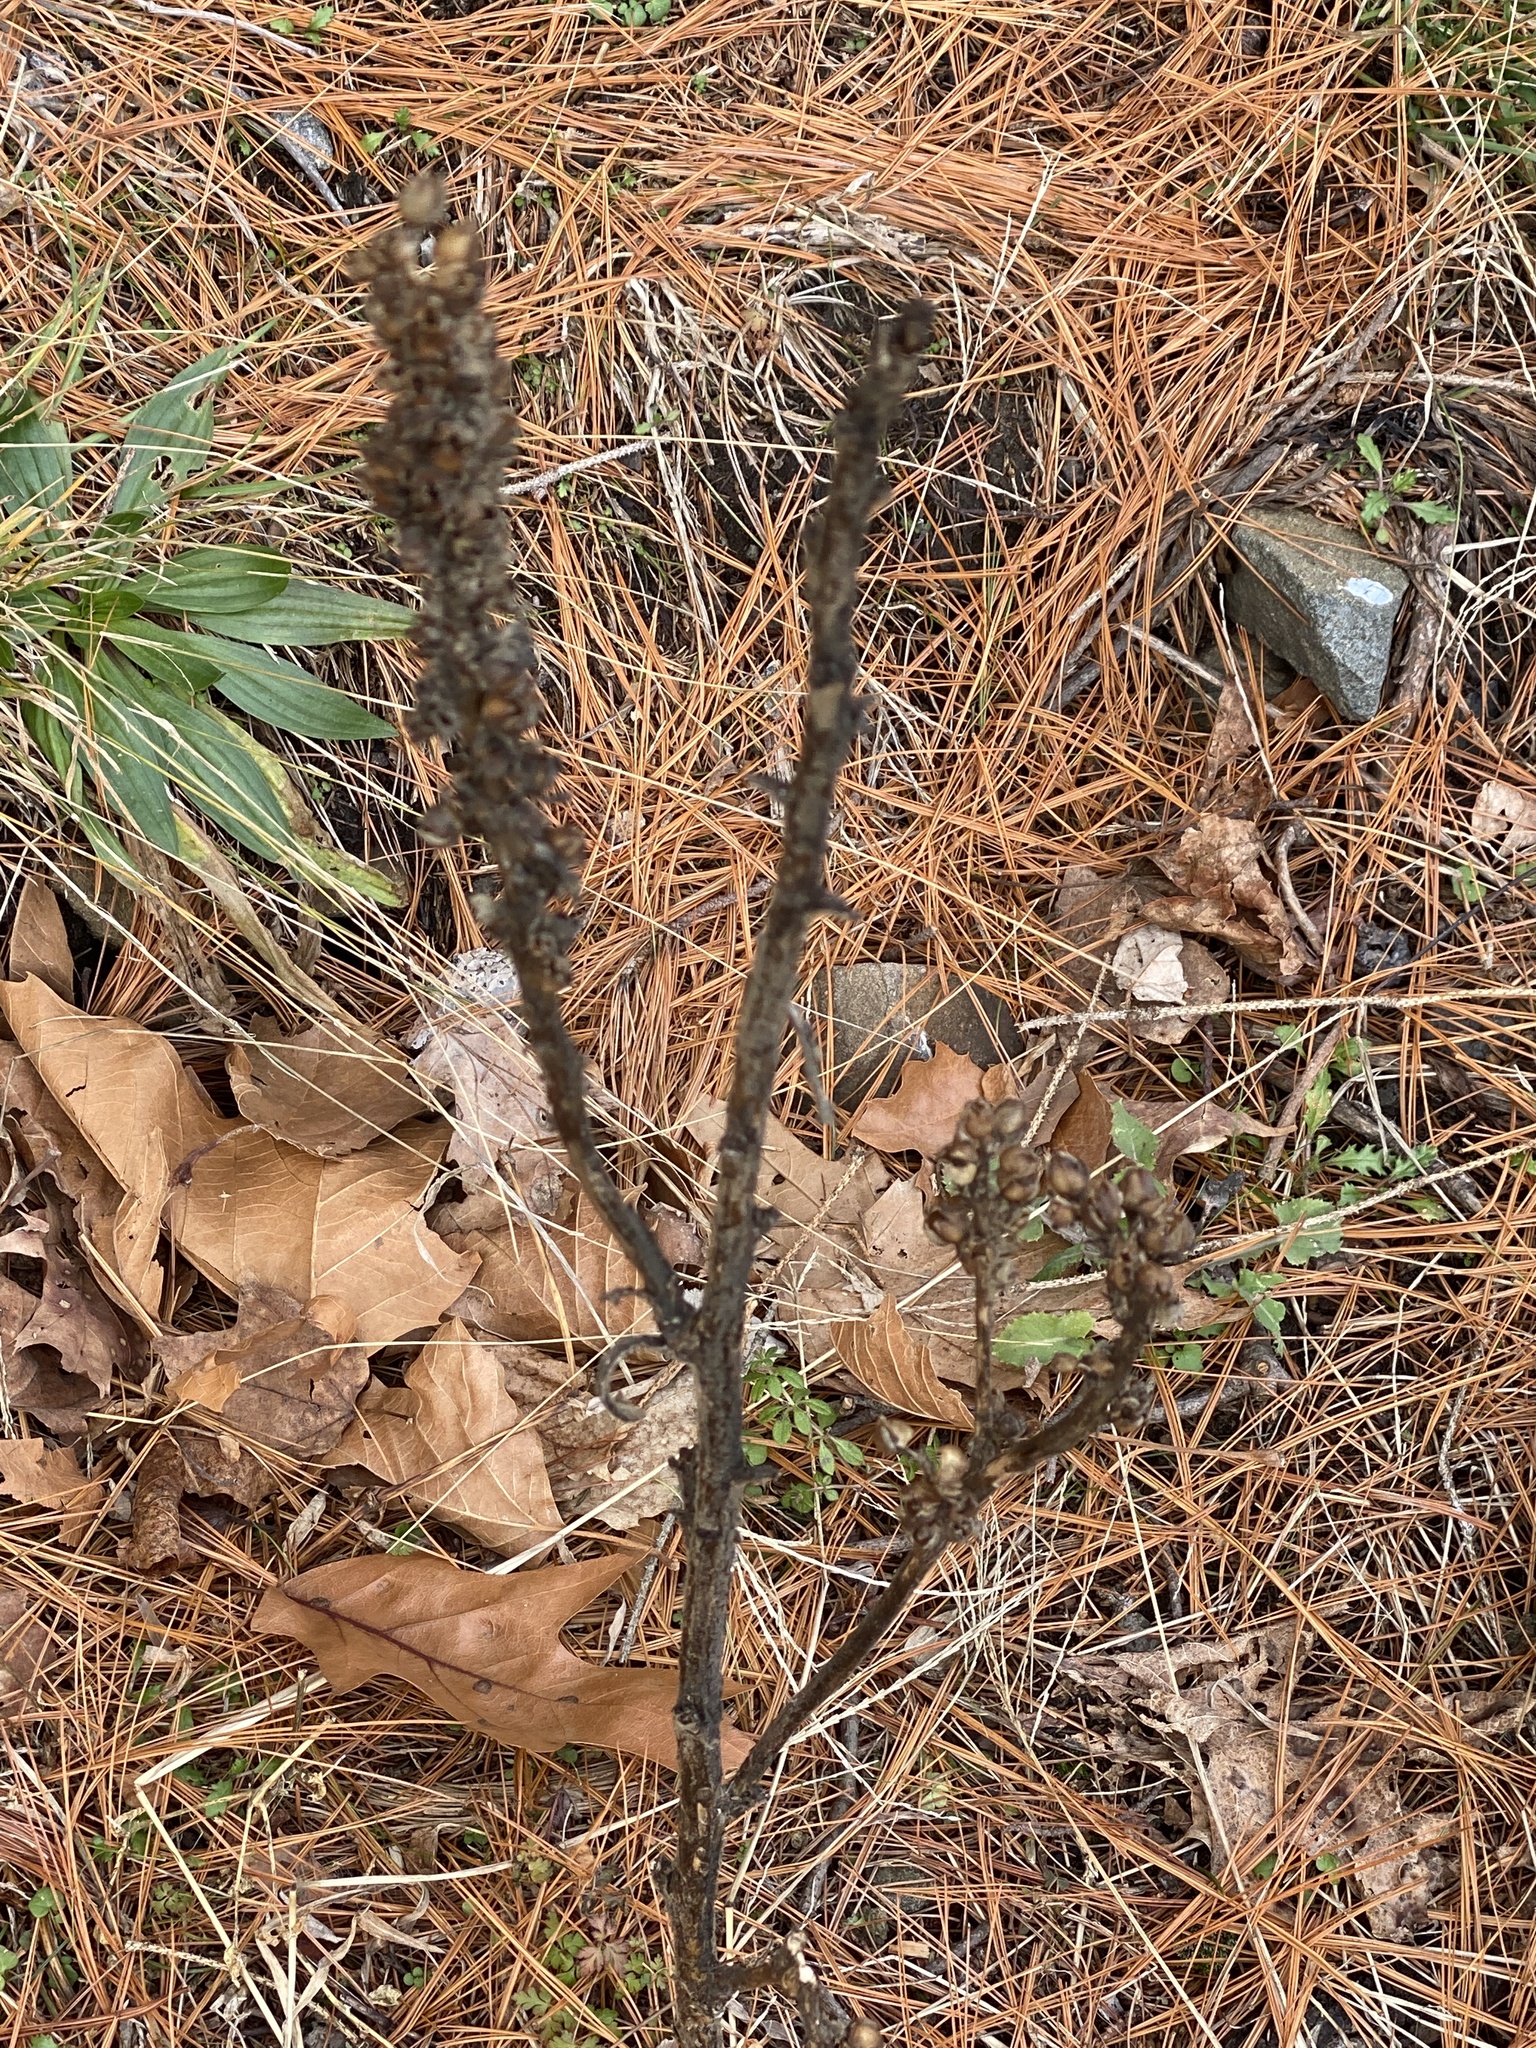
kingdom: Plantae
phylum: Tracheophyta
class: Magnoliopsida
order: Lamiales
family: Scrophulariaceae
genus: Verbascum
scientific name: Verbascum thapsus
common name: Common mullein
